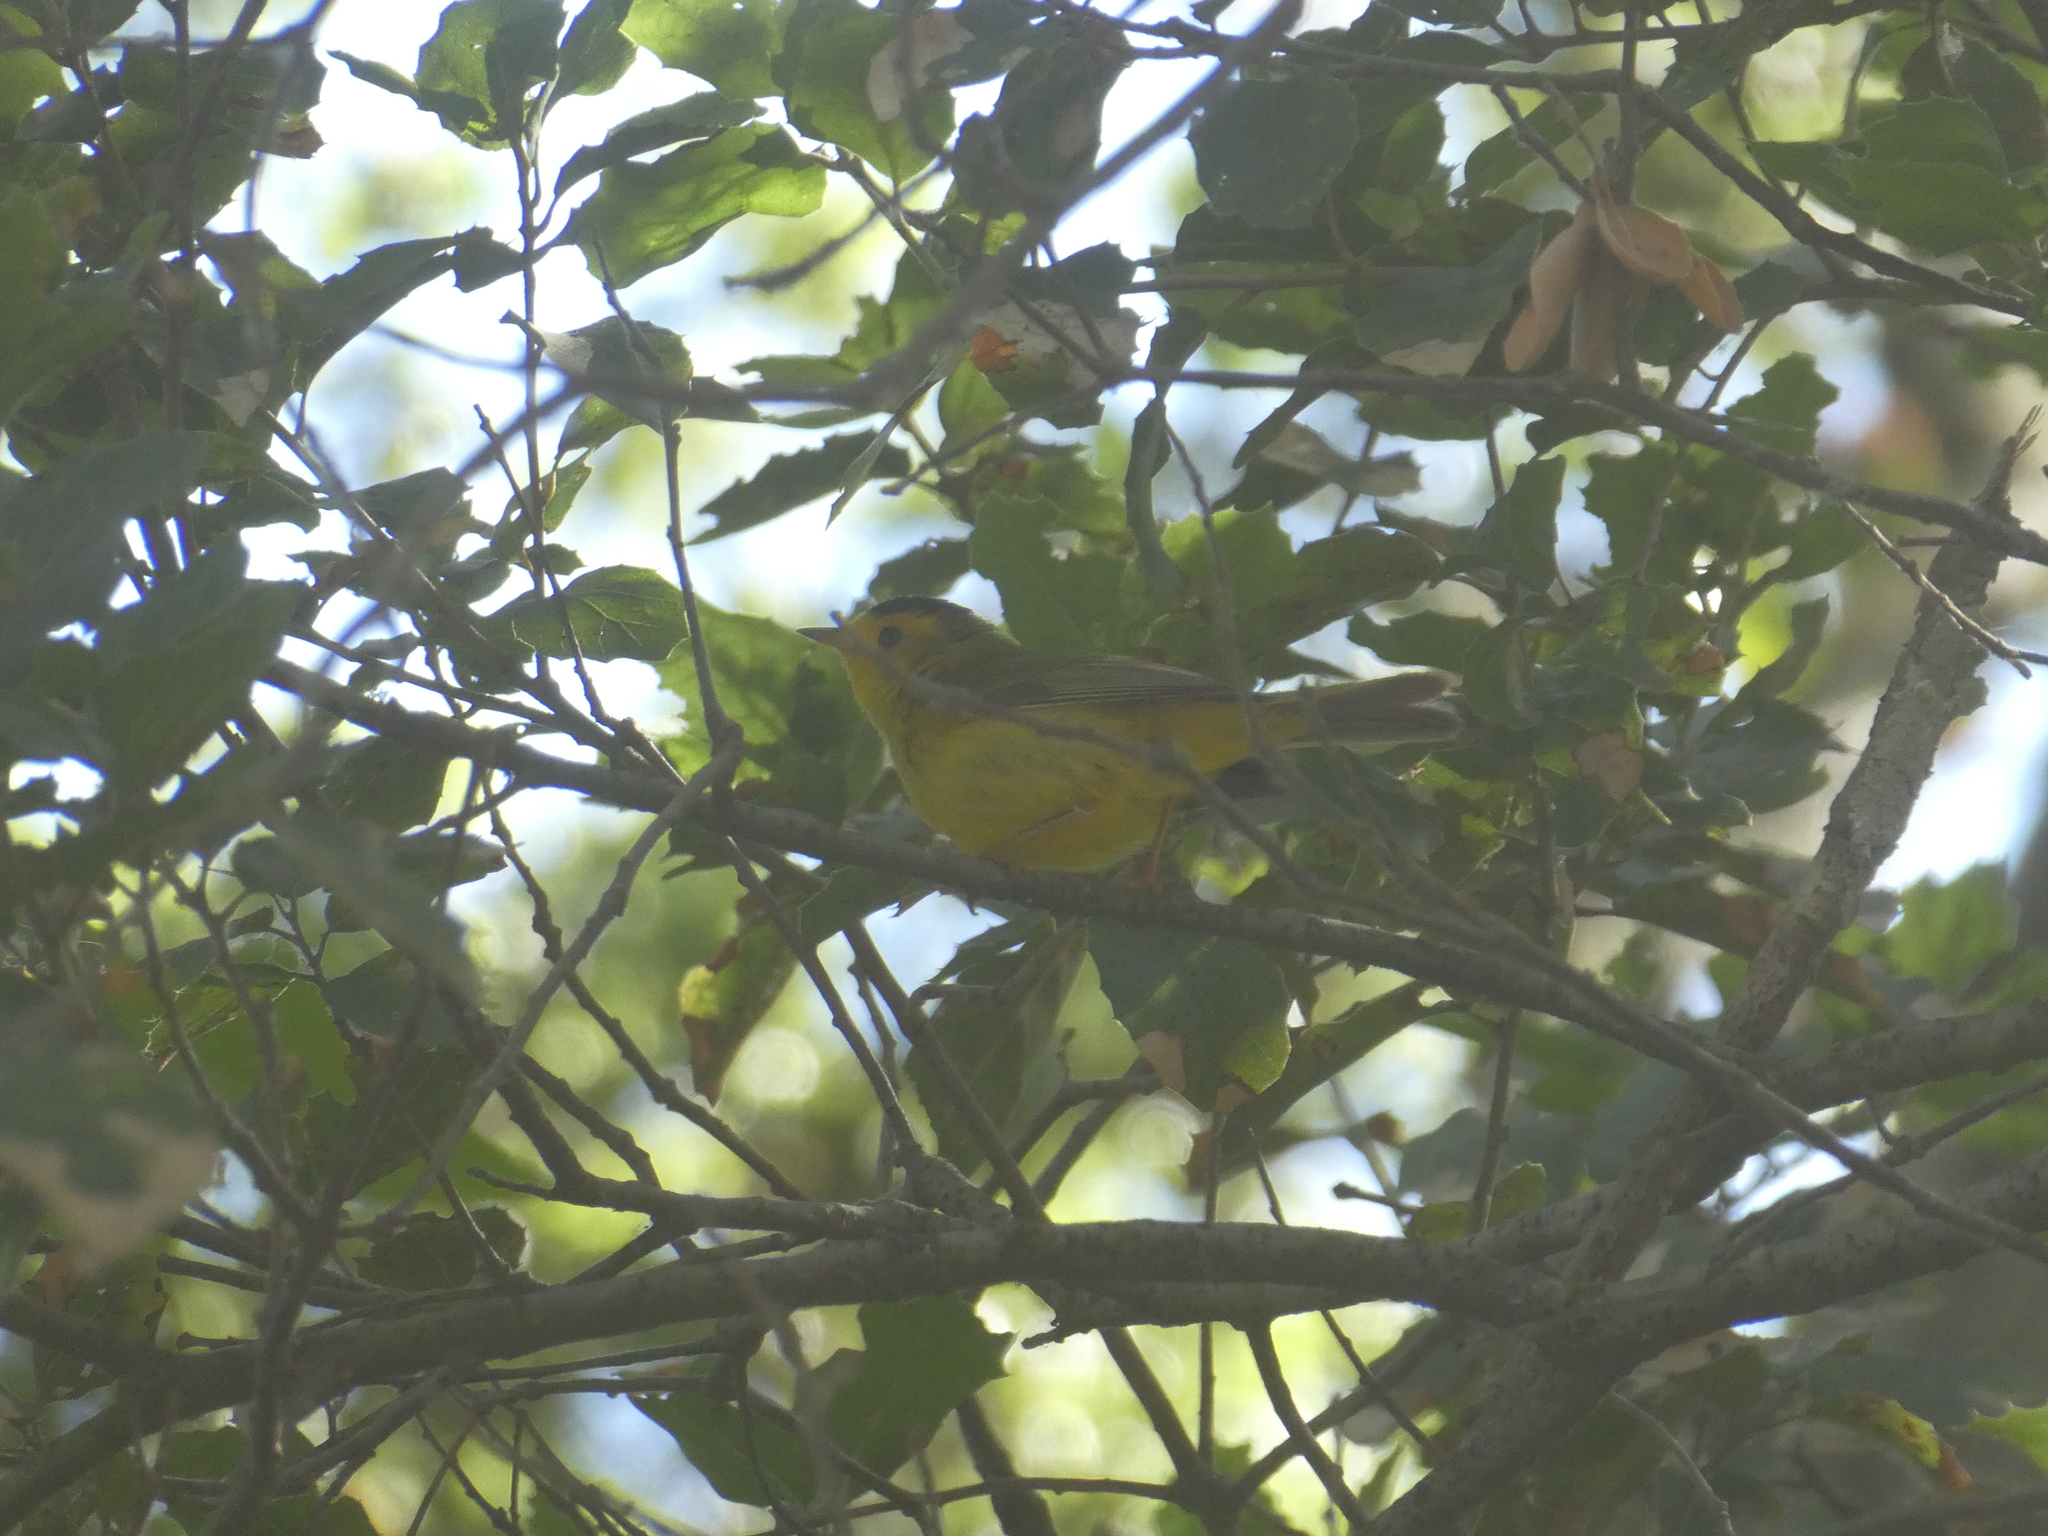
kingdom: Animalia
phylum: Chordata
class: Aves
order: Passeriformes
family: Parulidae
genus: Cardellina
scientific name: Cardellina pusilla
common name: Wilson's warbler
